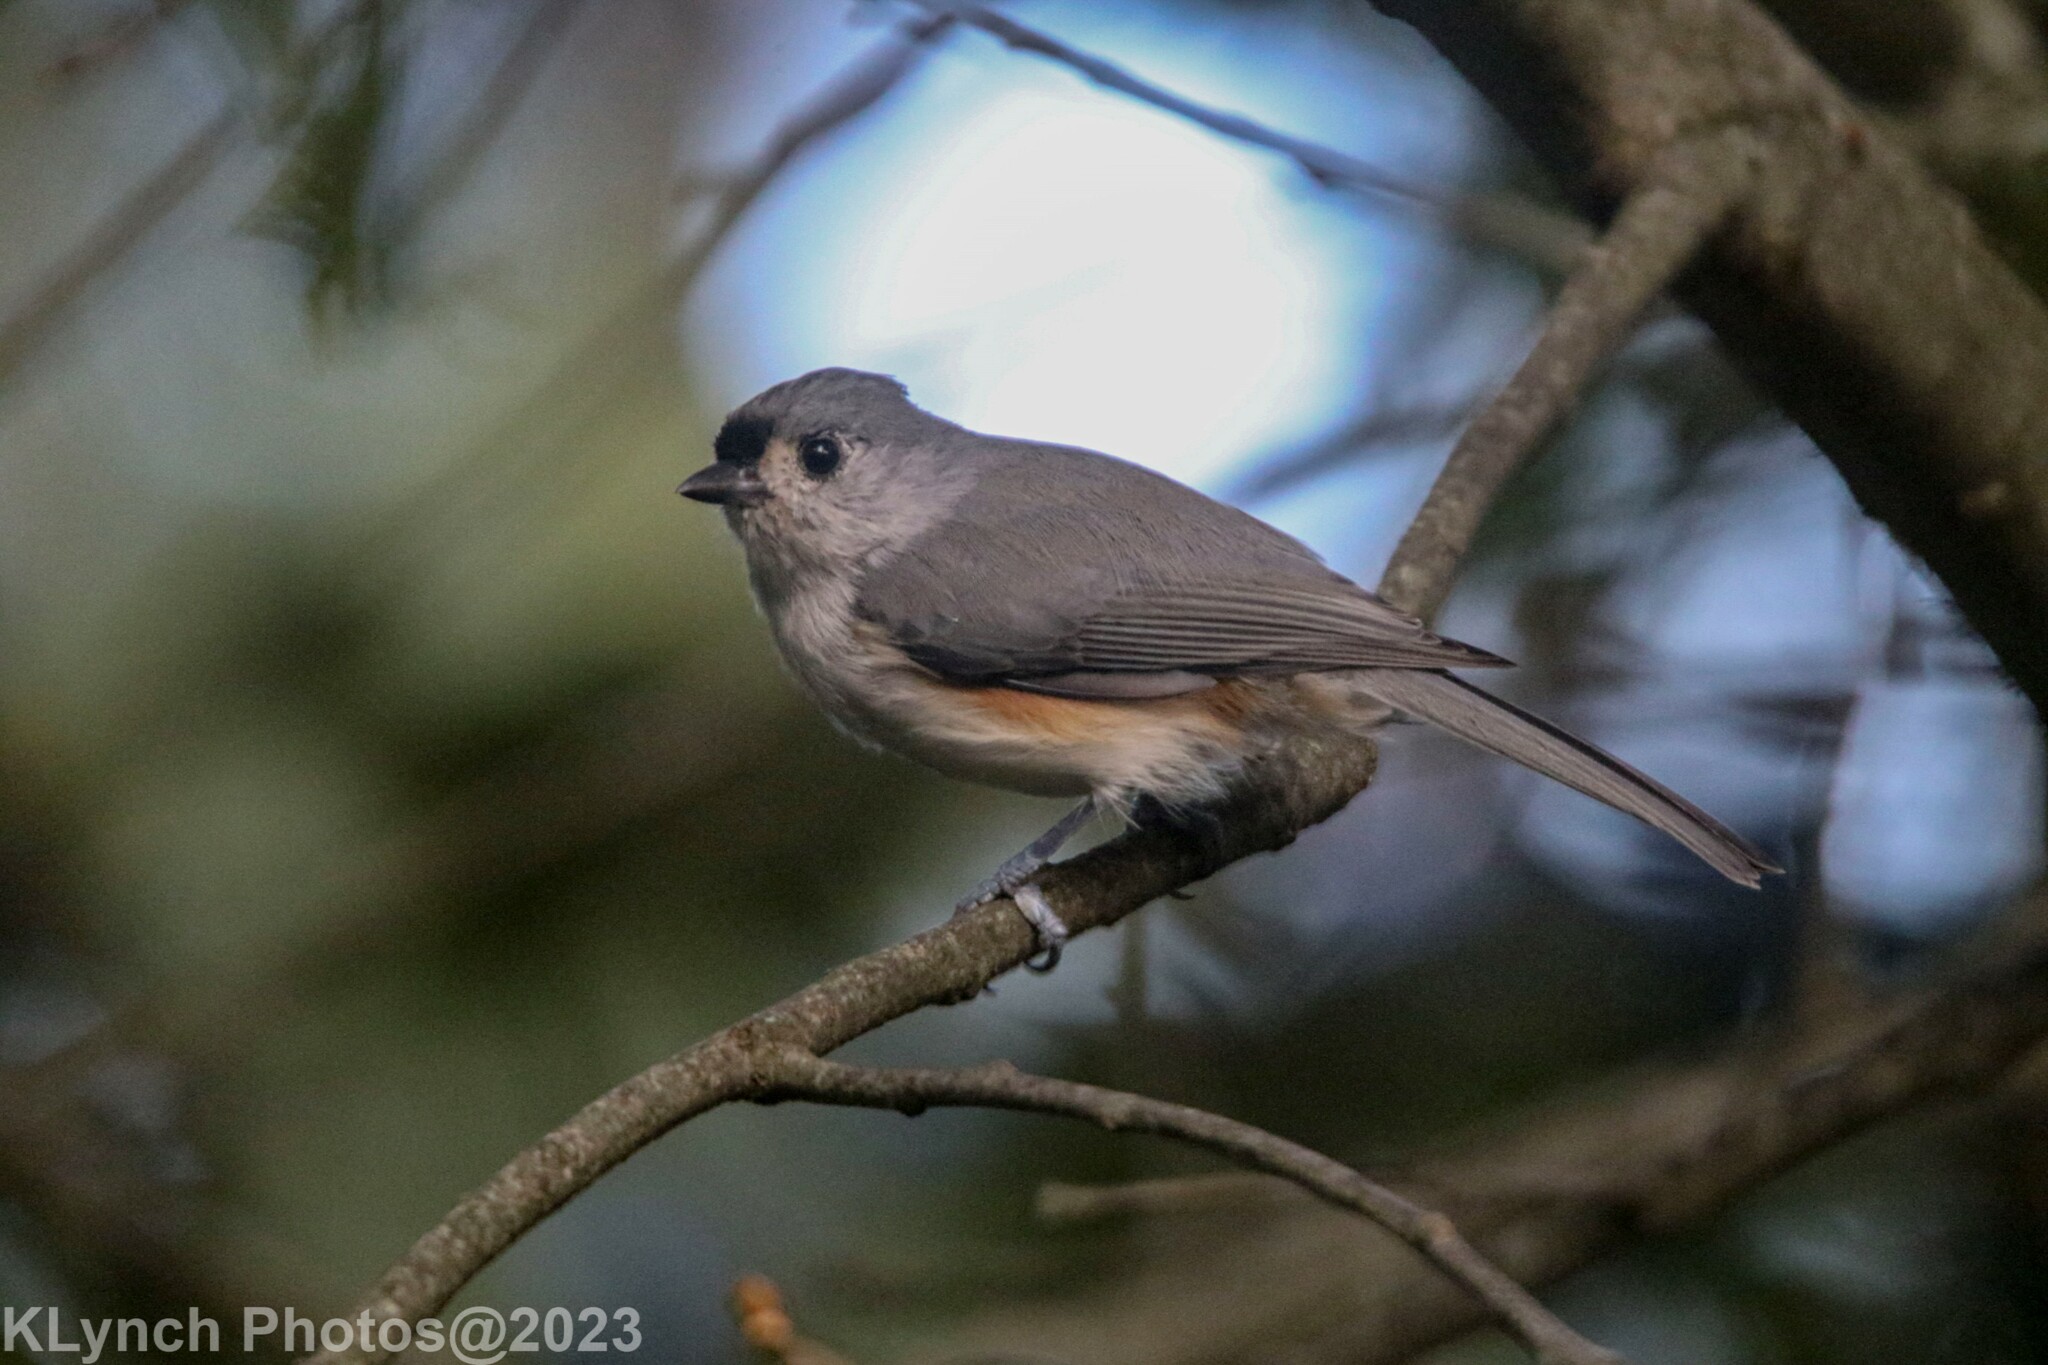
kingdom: Animalia
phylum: Chordata
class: Aves
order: Passeriformes
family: Paridae
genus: Baeolophus
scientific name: Baeolophus bicolor
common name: Tufted titmouse
